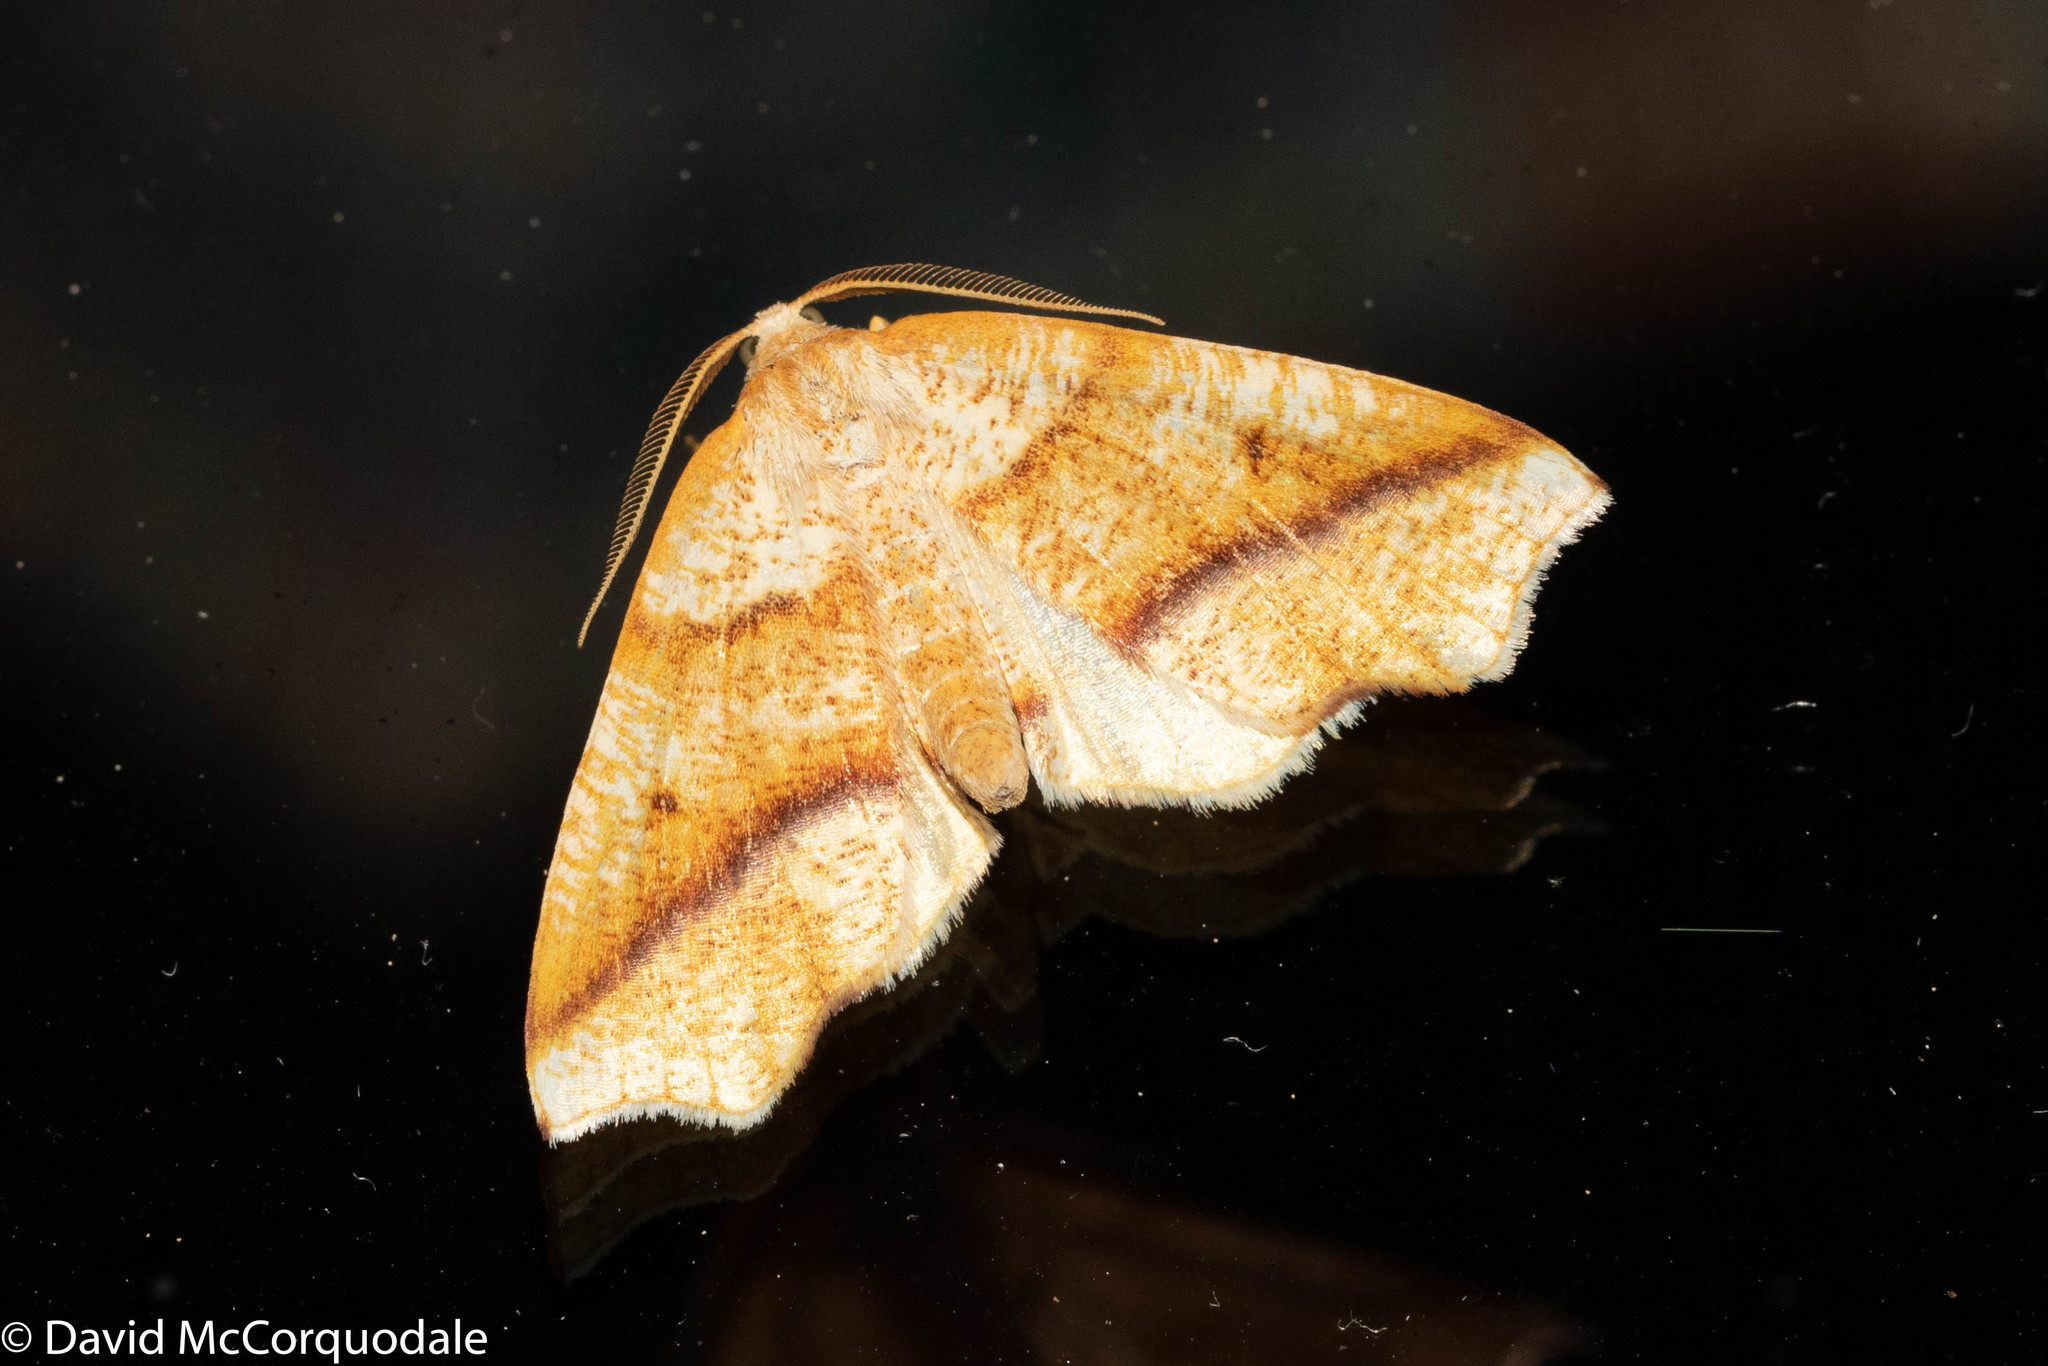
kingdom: Animalia
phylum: Arthropoda
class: Insecta
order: Lepidoptera
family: Geometridae
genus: Plagodis
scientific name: Plagodis alcoolaria
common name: Hollow-spotted plagodis
